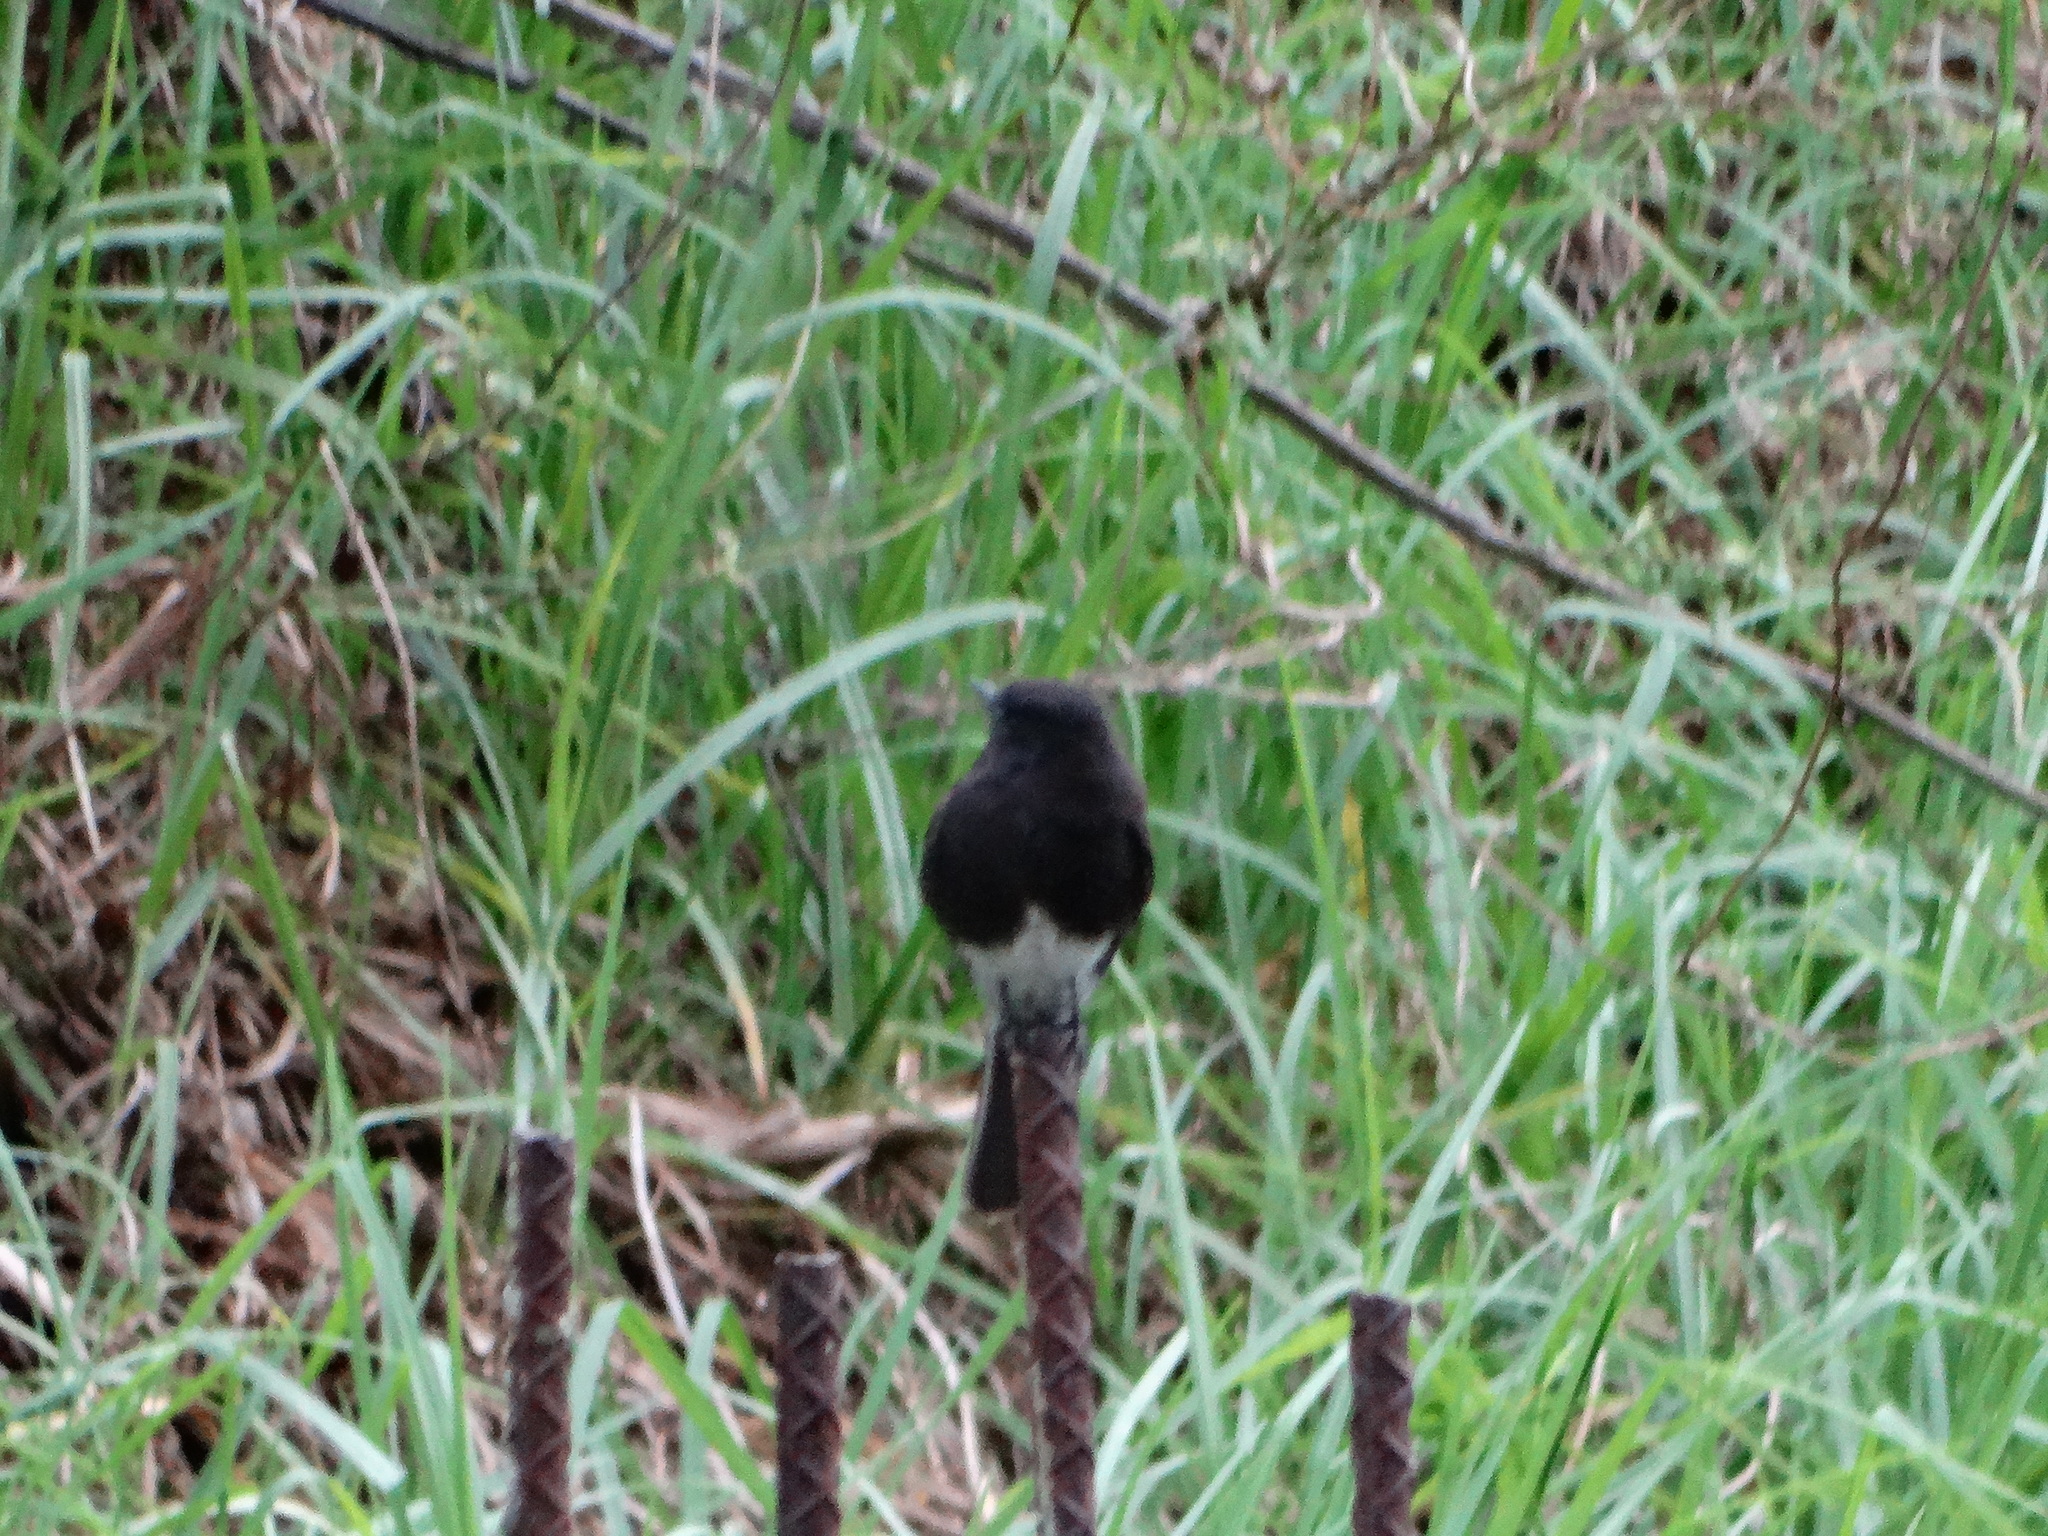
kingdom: Animalia
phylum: Chordata
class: Aves
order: Passeriformes
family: Tyrannidae
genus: Sayornis
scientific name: Sayornis nigricans
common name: Black phoebe
